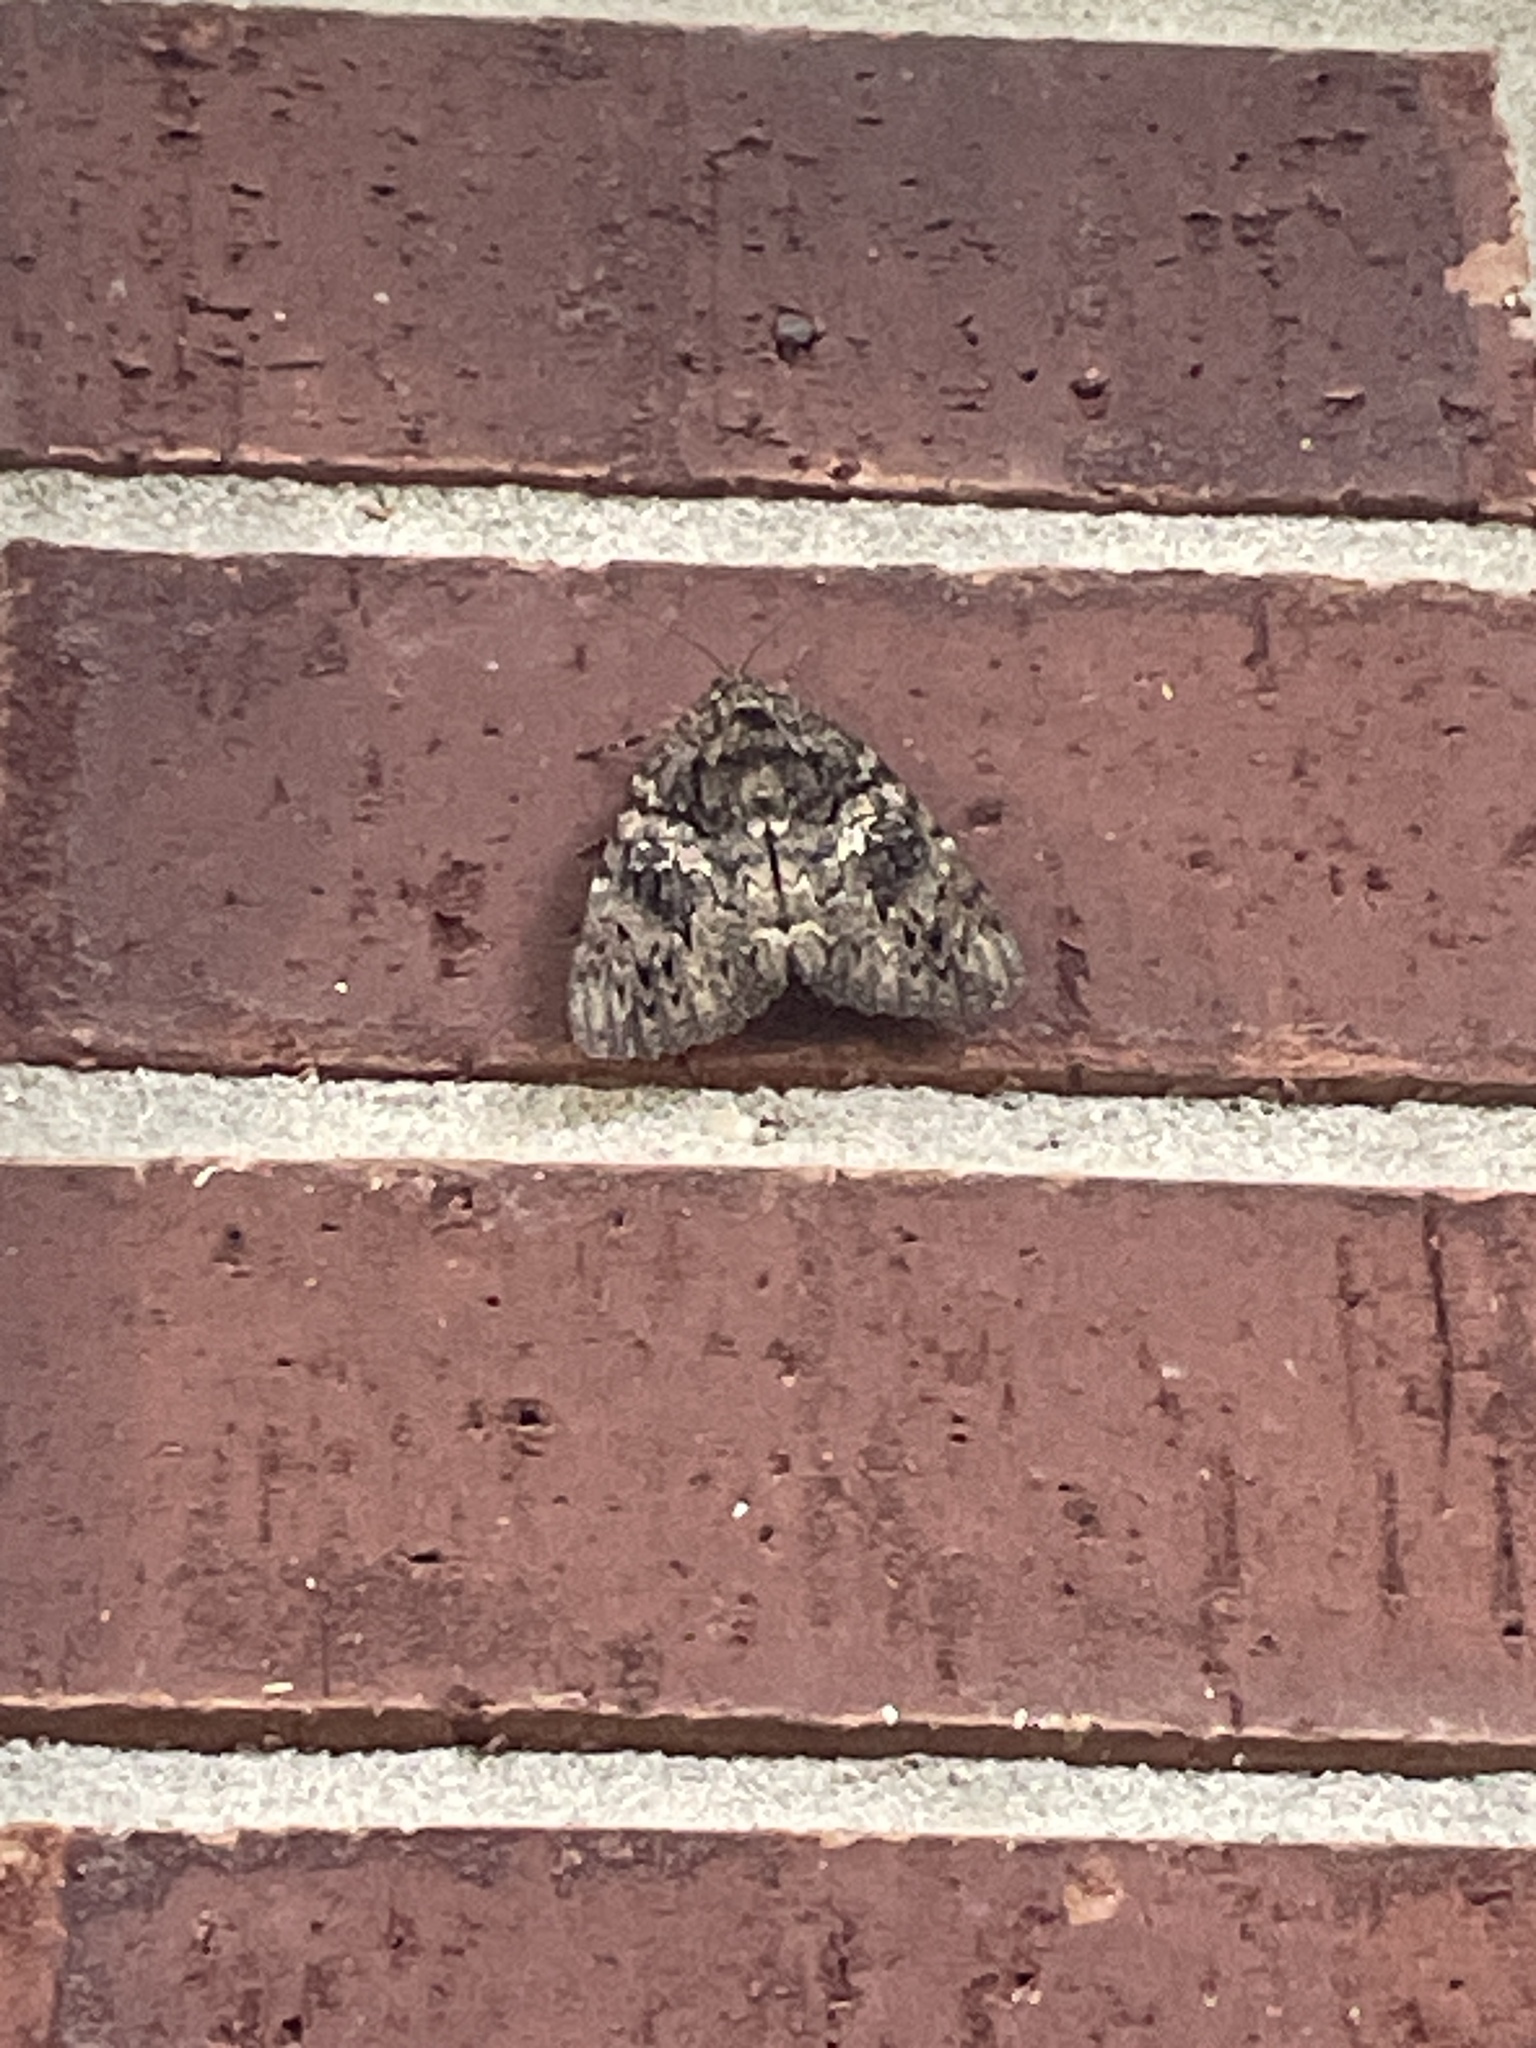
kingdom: Animalia
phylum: Arthropoda
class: Insecta
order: Lepidoptera
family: Erebidae
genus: Catocala
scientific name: Catocala ilia
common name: Ilia underwing
